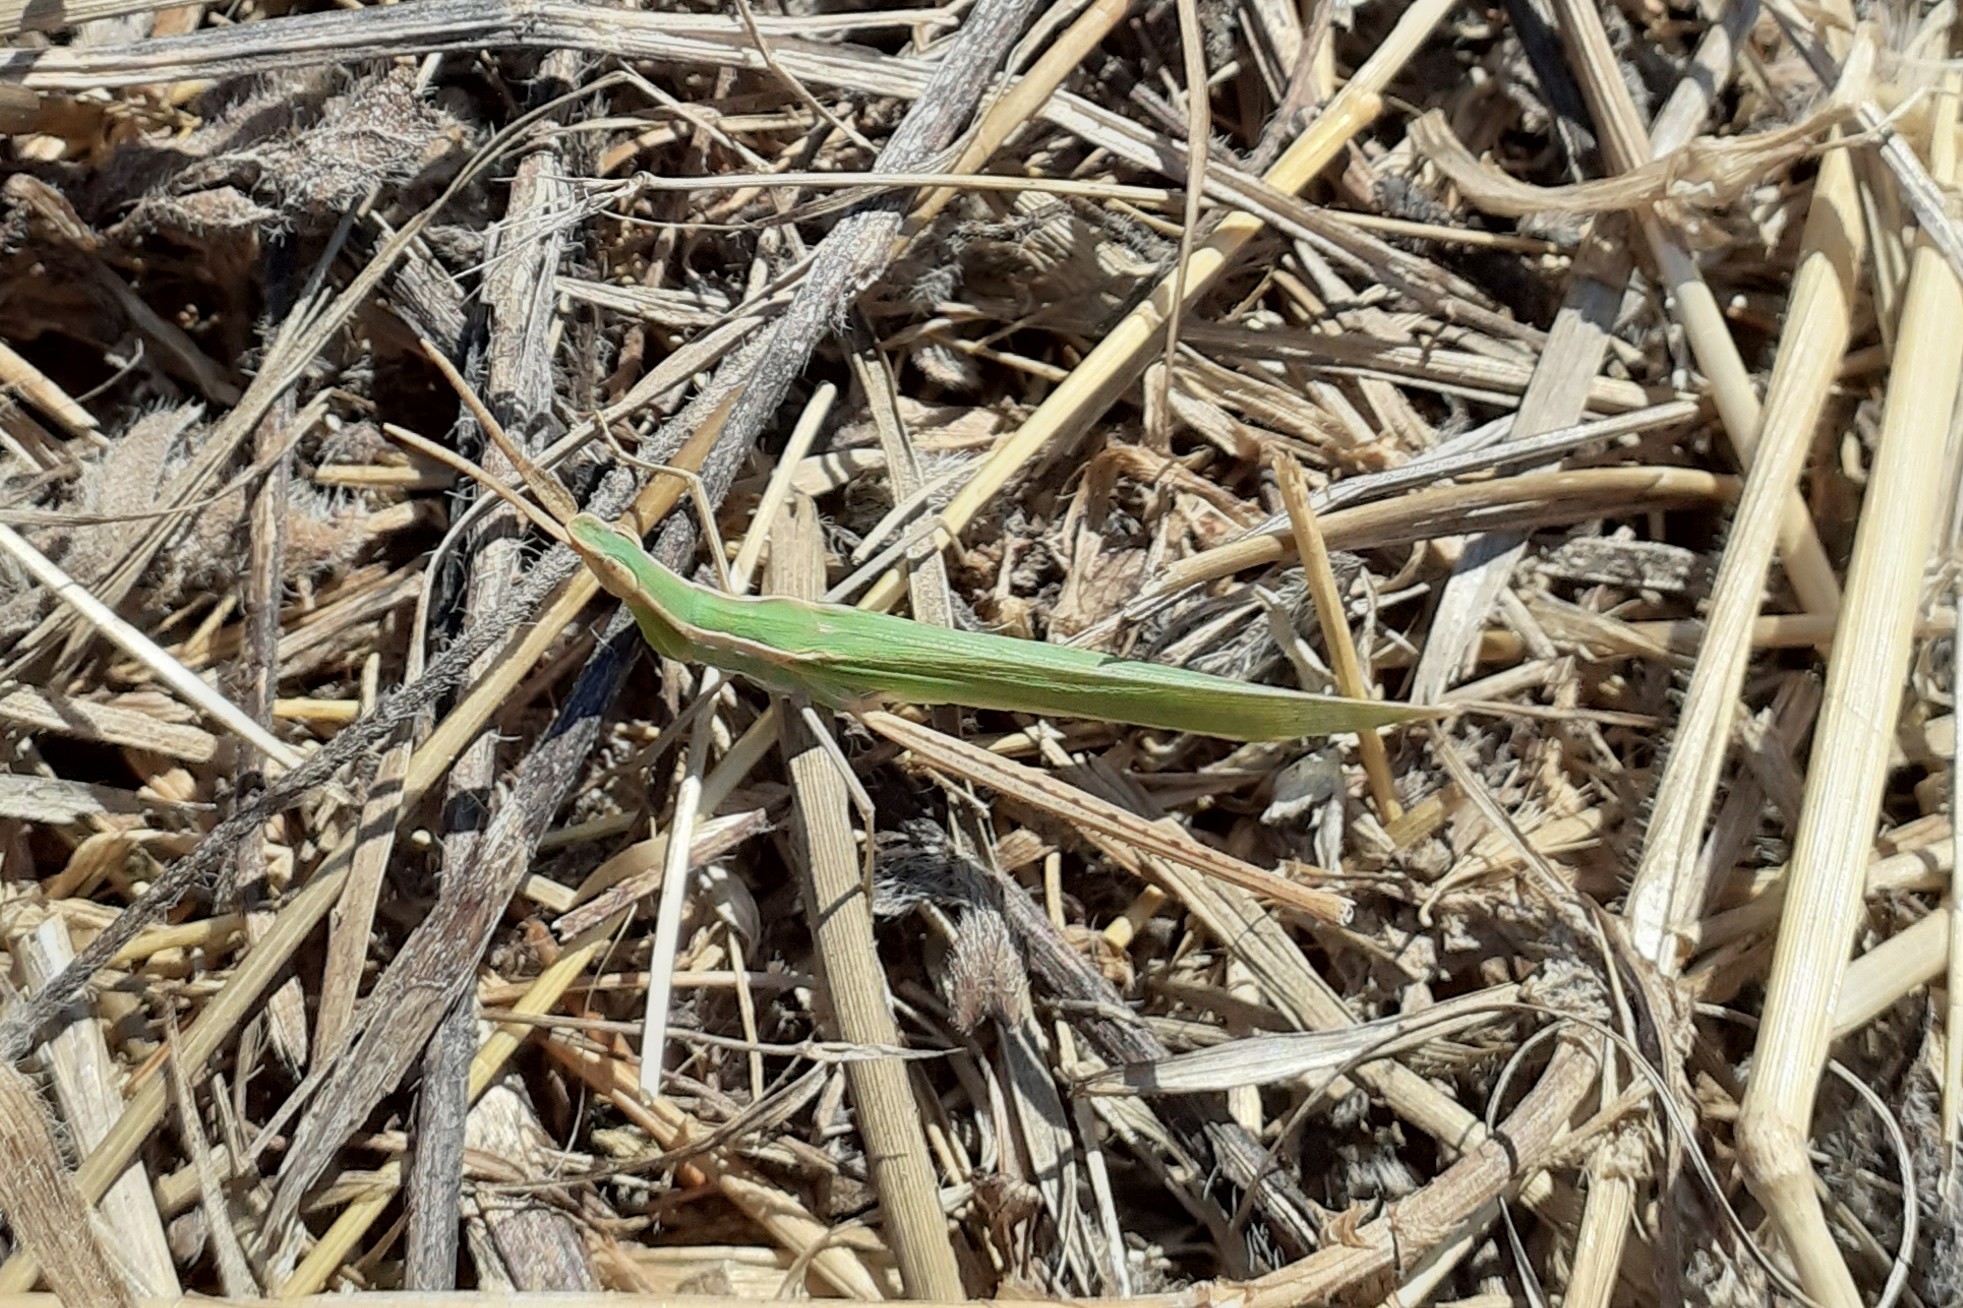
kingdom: Animalia
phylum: Arthropoda
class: Insecta
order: Orthoptera
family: Acrididae
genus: Acrida
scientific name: Acrida ungarica
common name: Common cone-headed grasshopper
